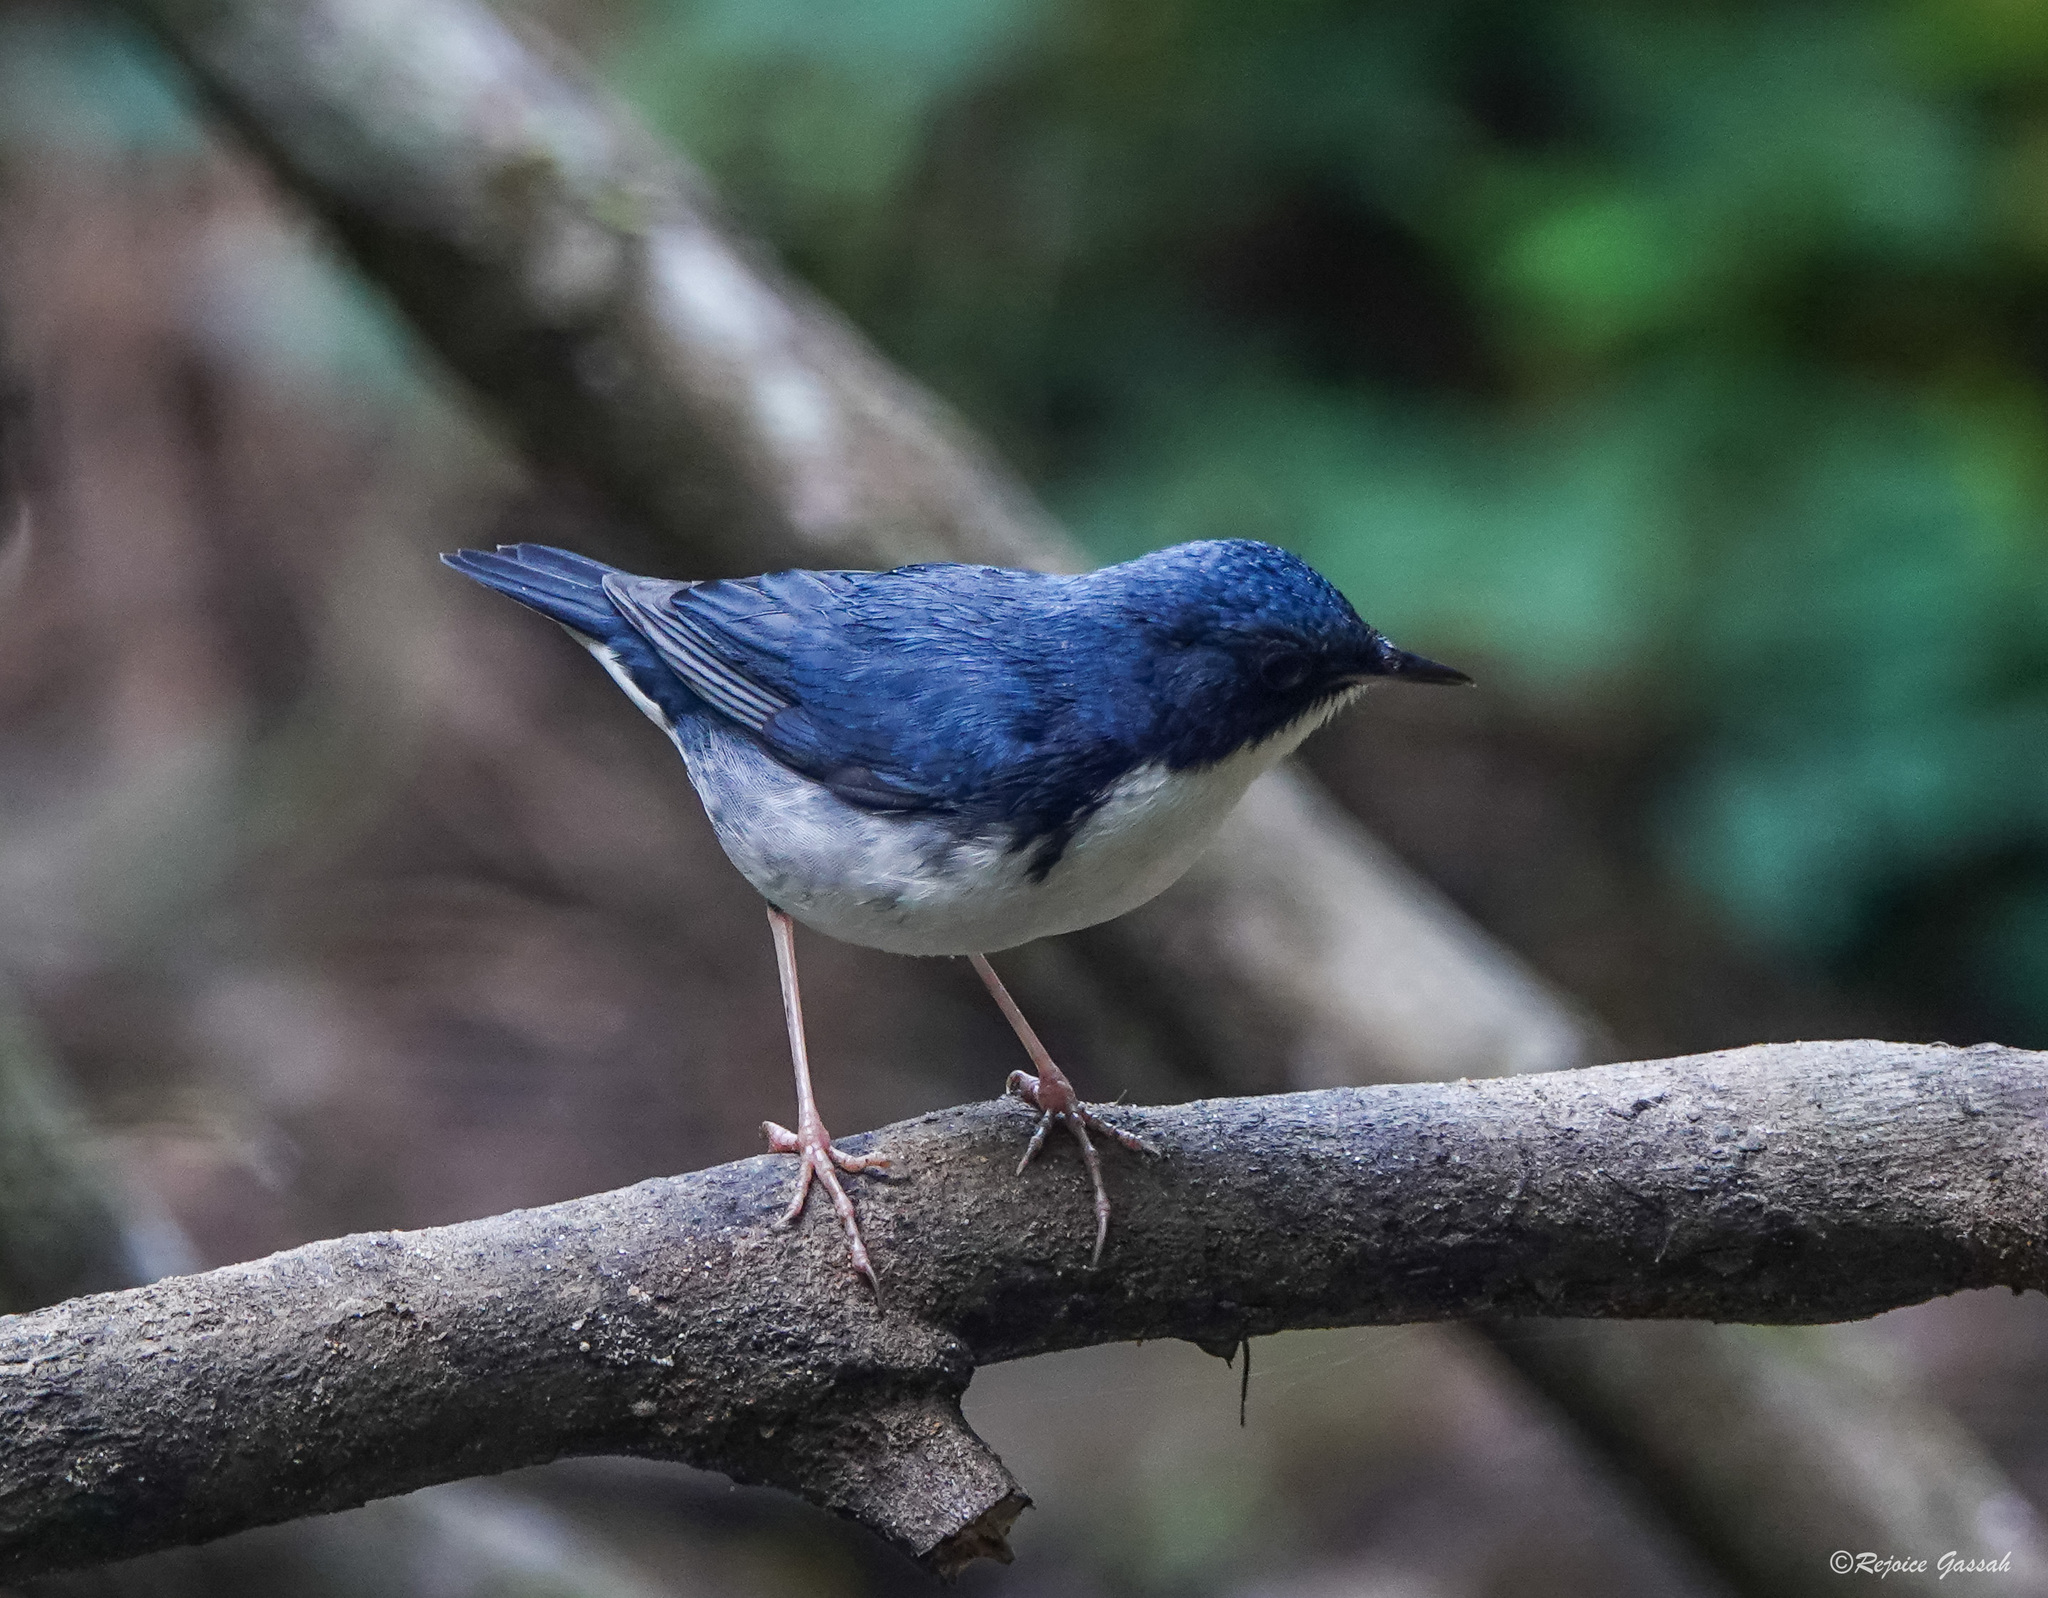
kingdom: Animalia
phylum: Chordata
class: Aves
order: Passeriformes
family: Muscicapidae
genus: Luscinia
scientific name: Luscinia cyane
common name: Siberian blue robin
